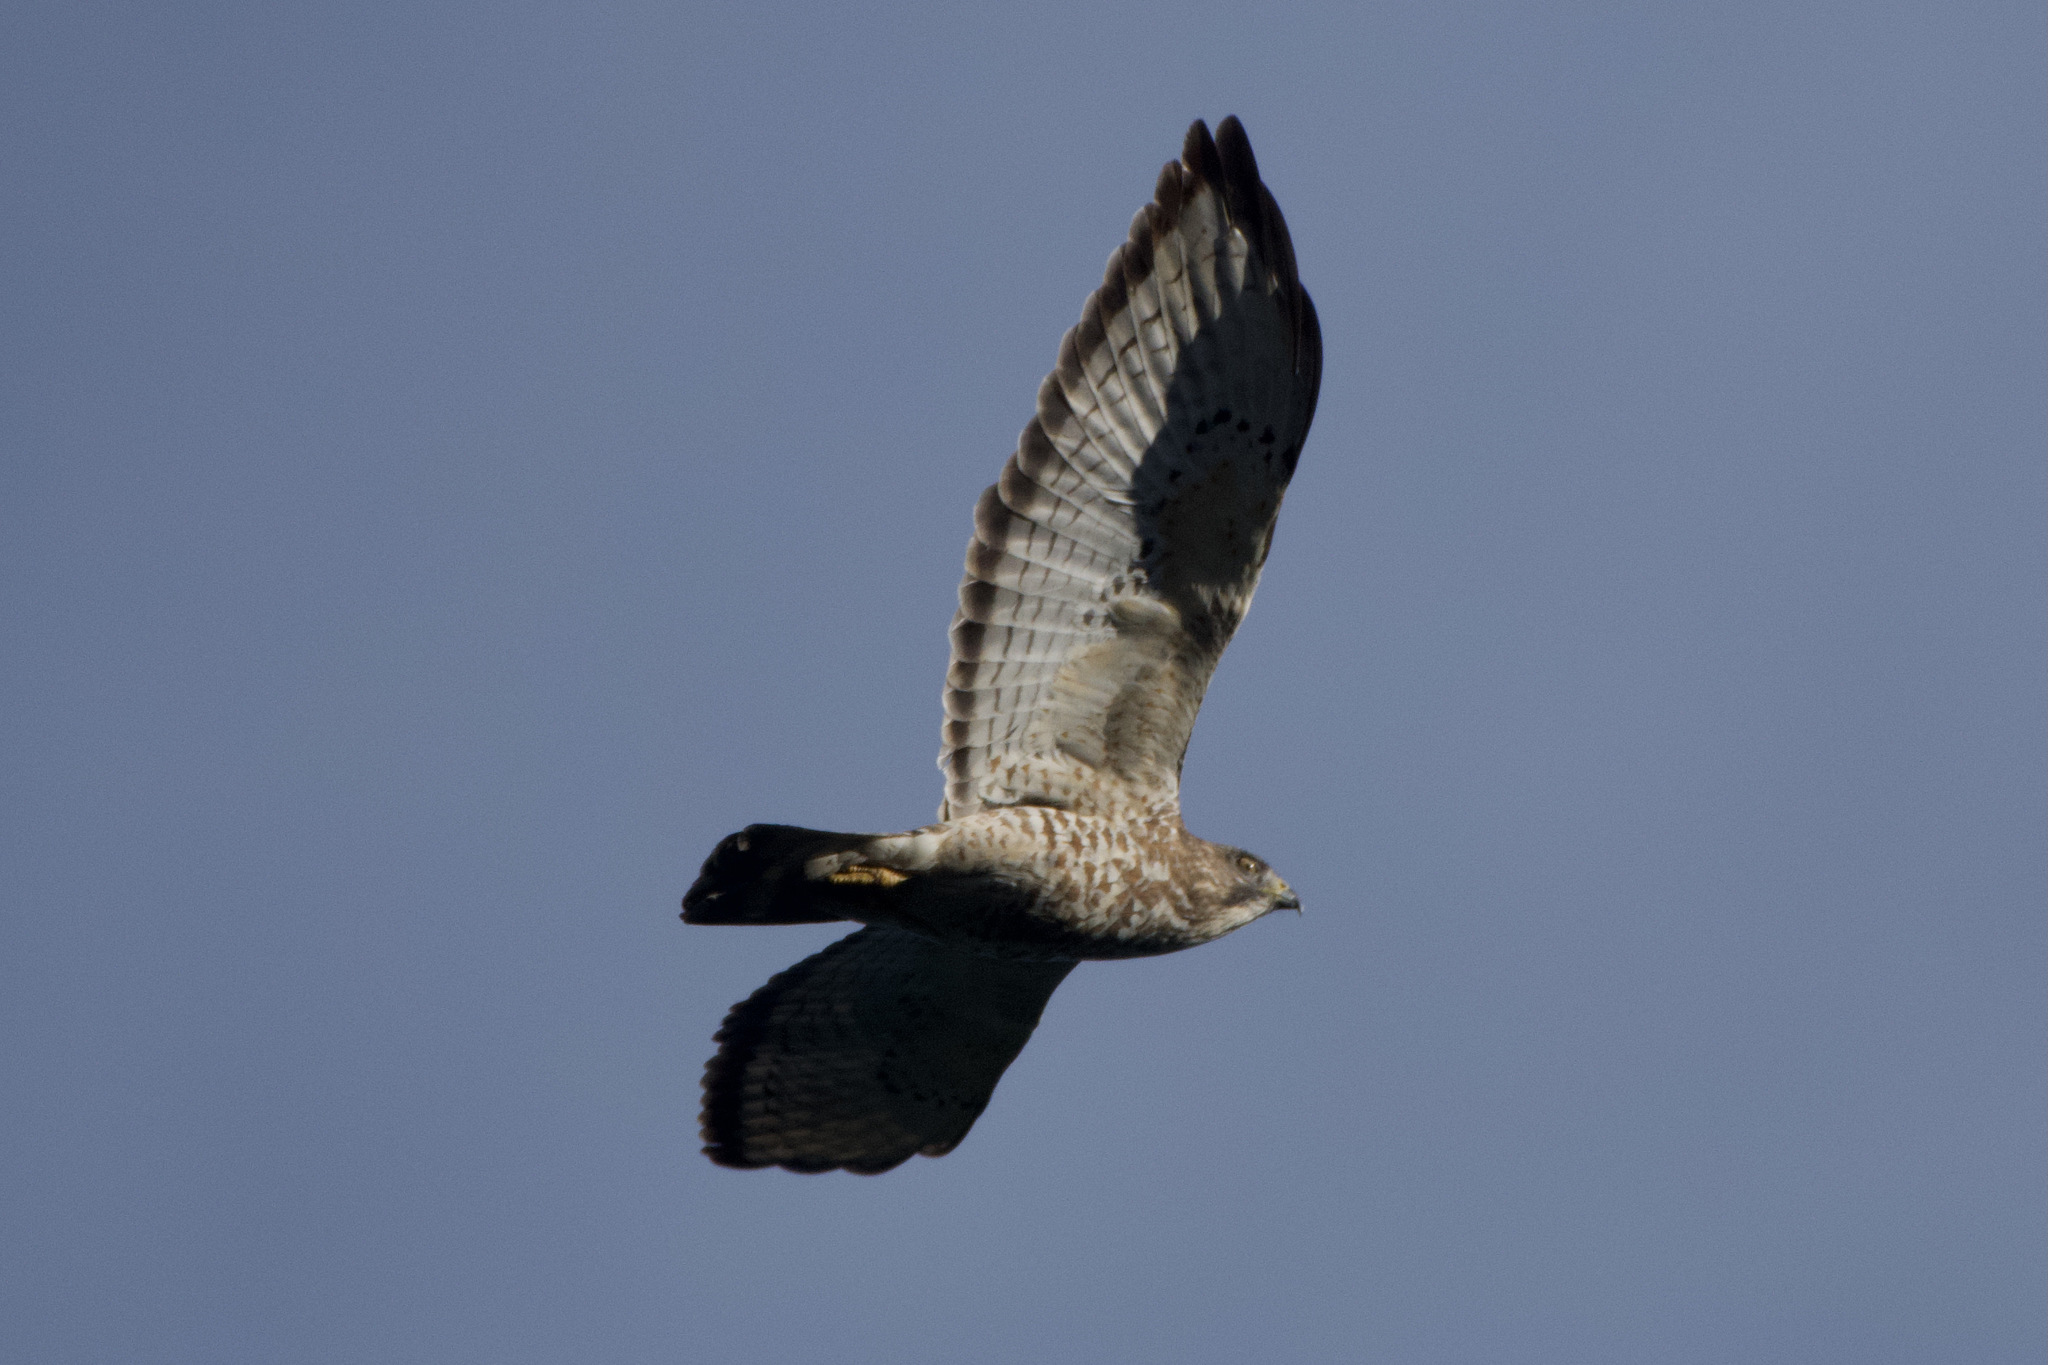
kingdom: Animalia
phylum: Chordata
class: Aves
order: Accipitriformes
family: Accipitridae
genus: Buteo
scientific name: Buteo platypterus
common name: Broad-winged hawk
